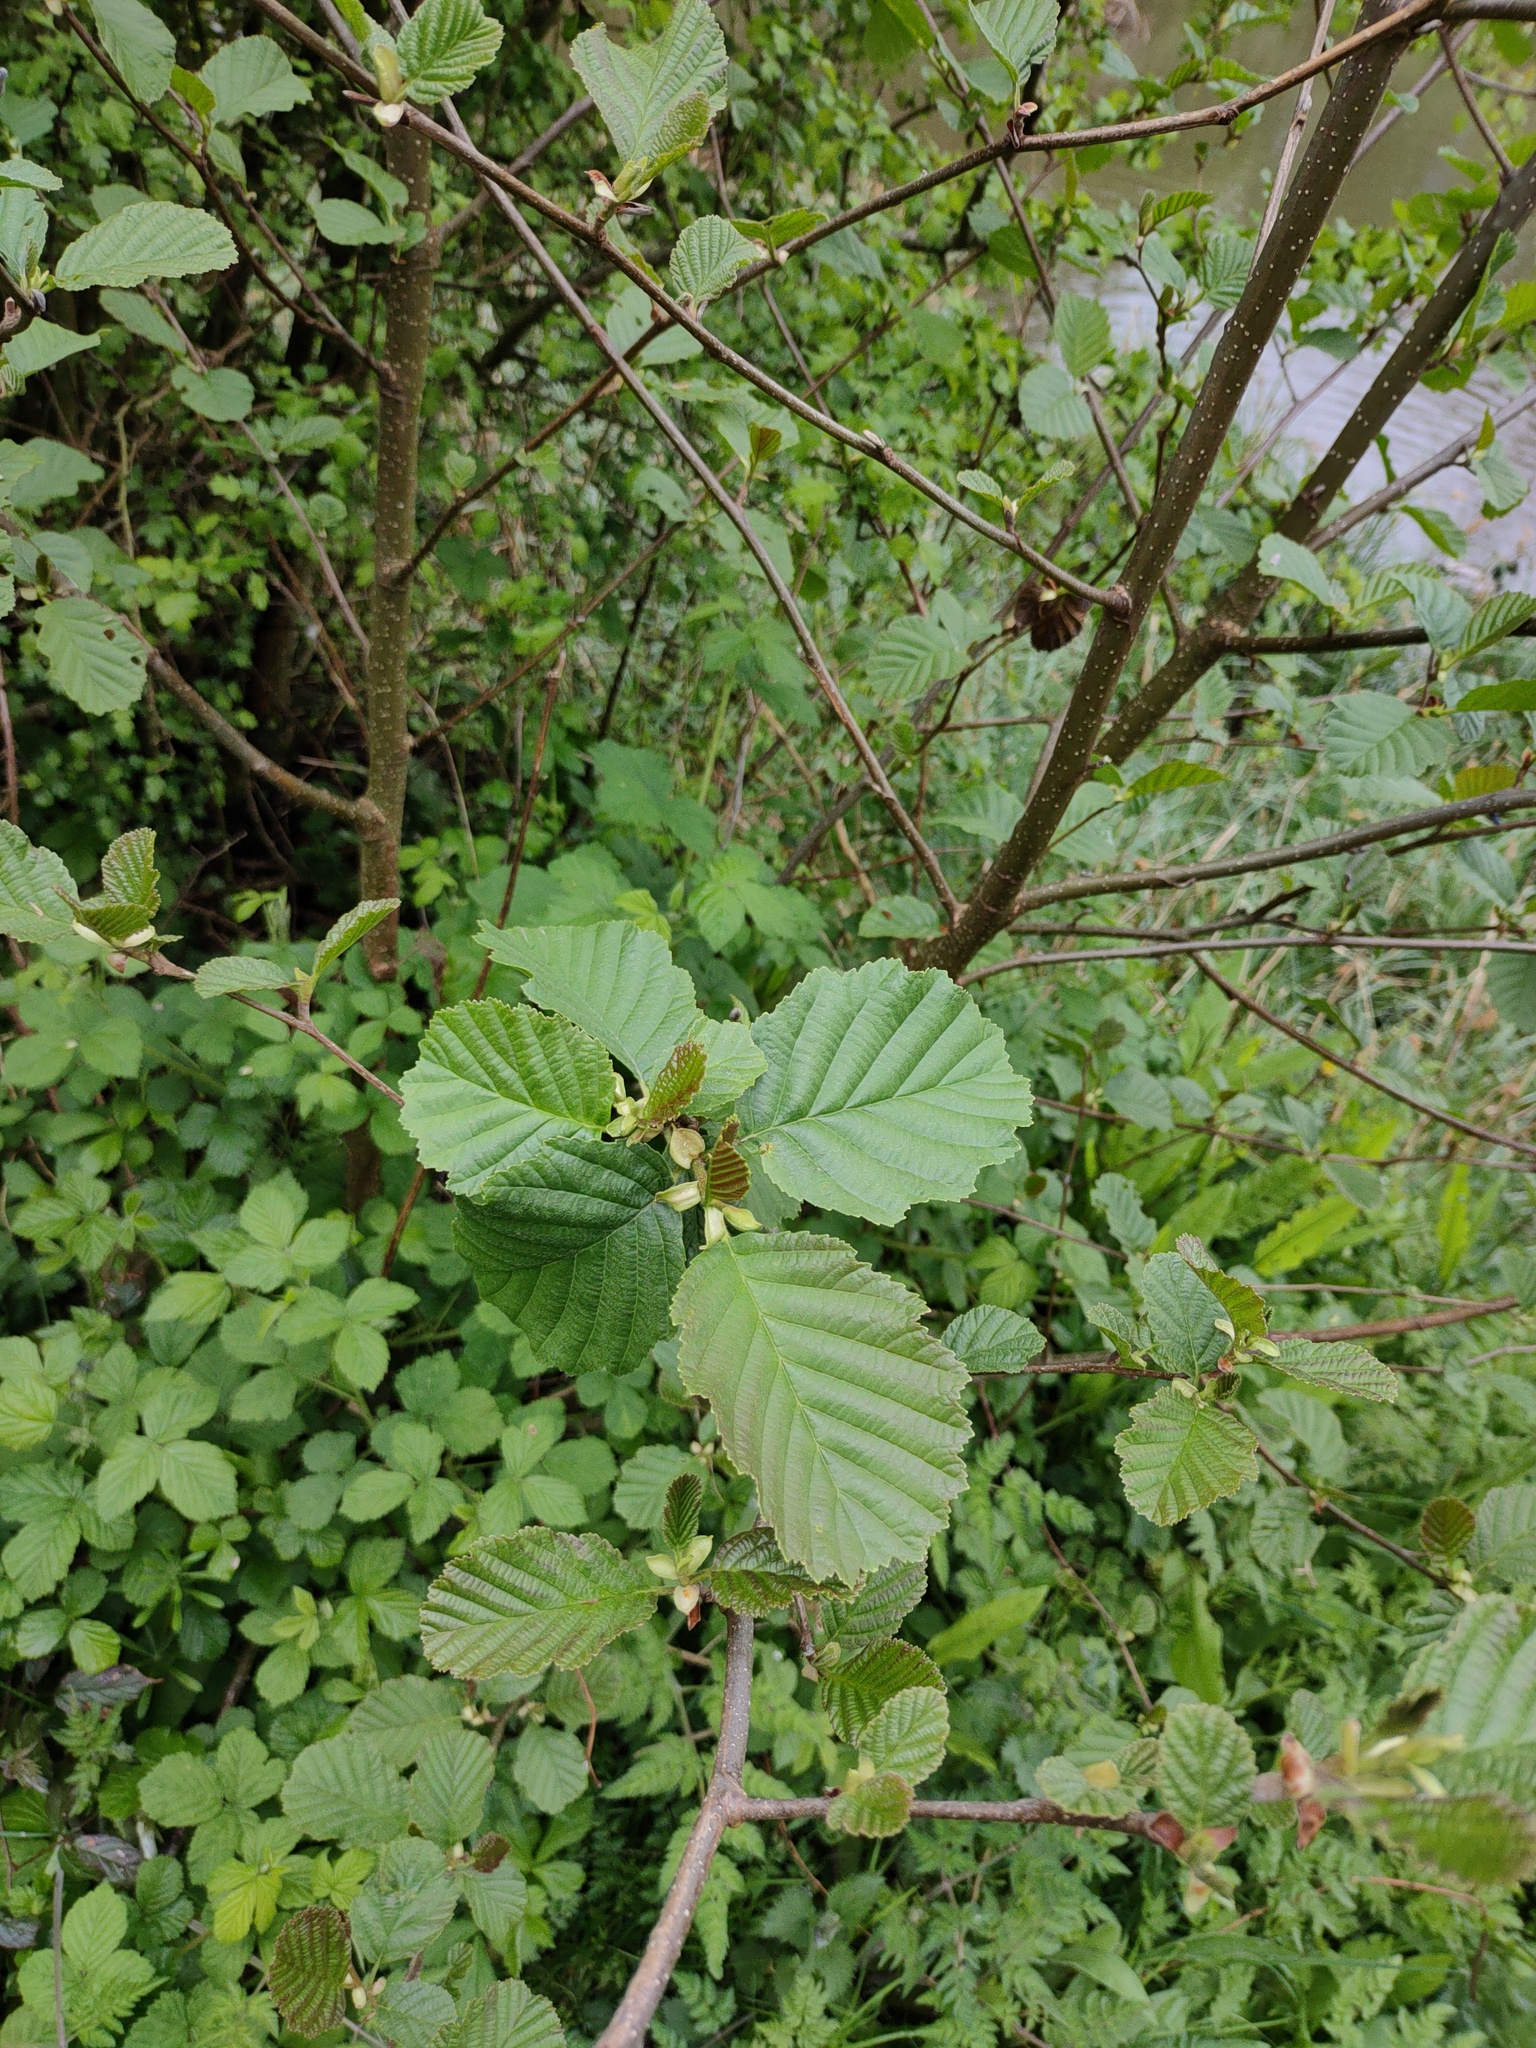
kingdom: Plantae
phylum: Tracheophyta
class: Magnoliopsida
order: Fagales
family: Betulaceae
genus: Alnus
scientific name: Alnus glutinosa
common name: Black alder
